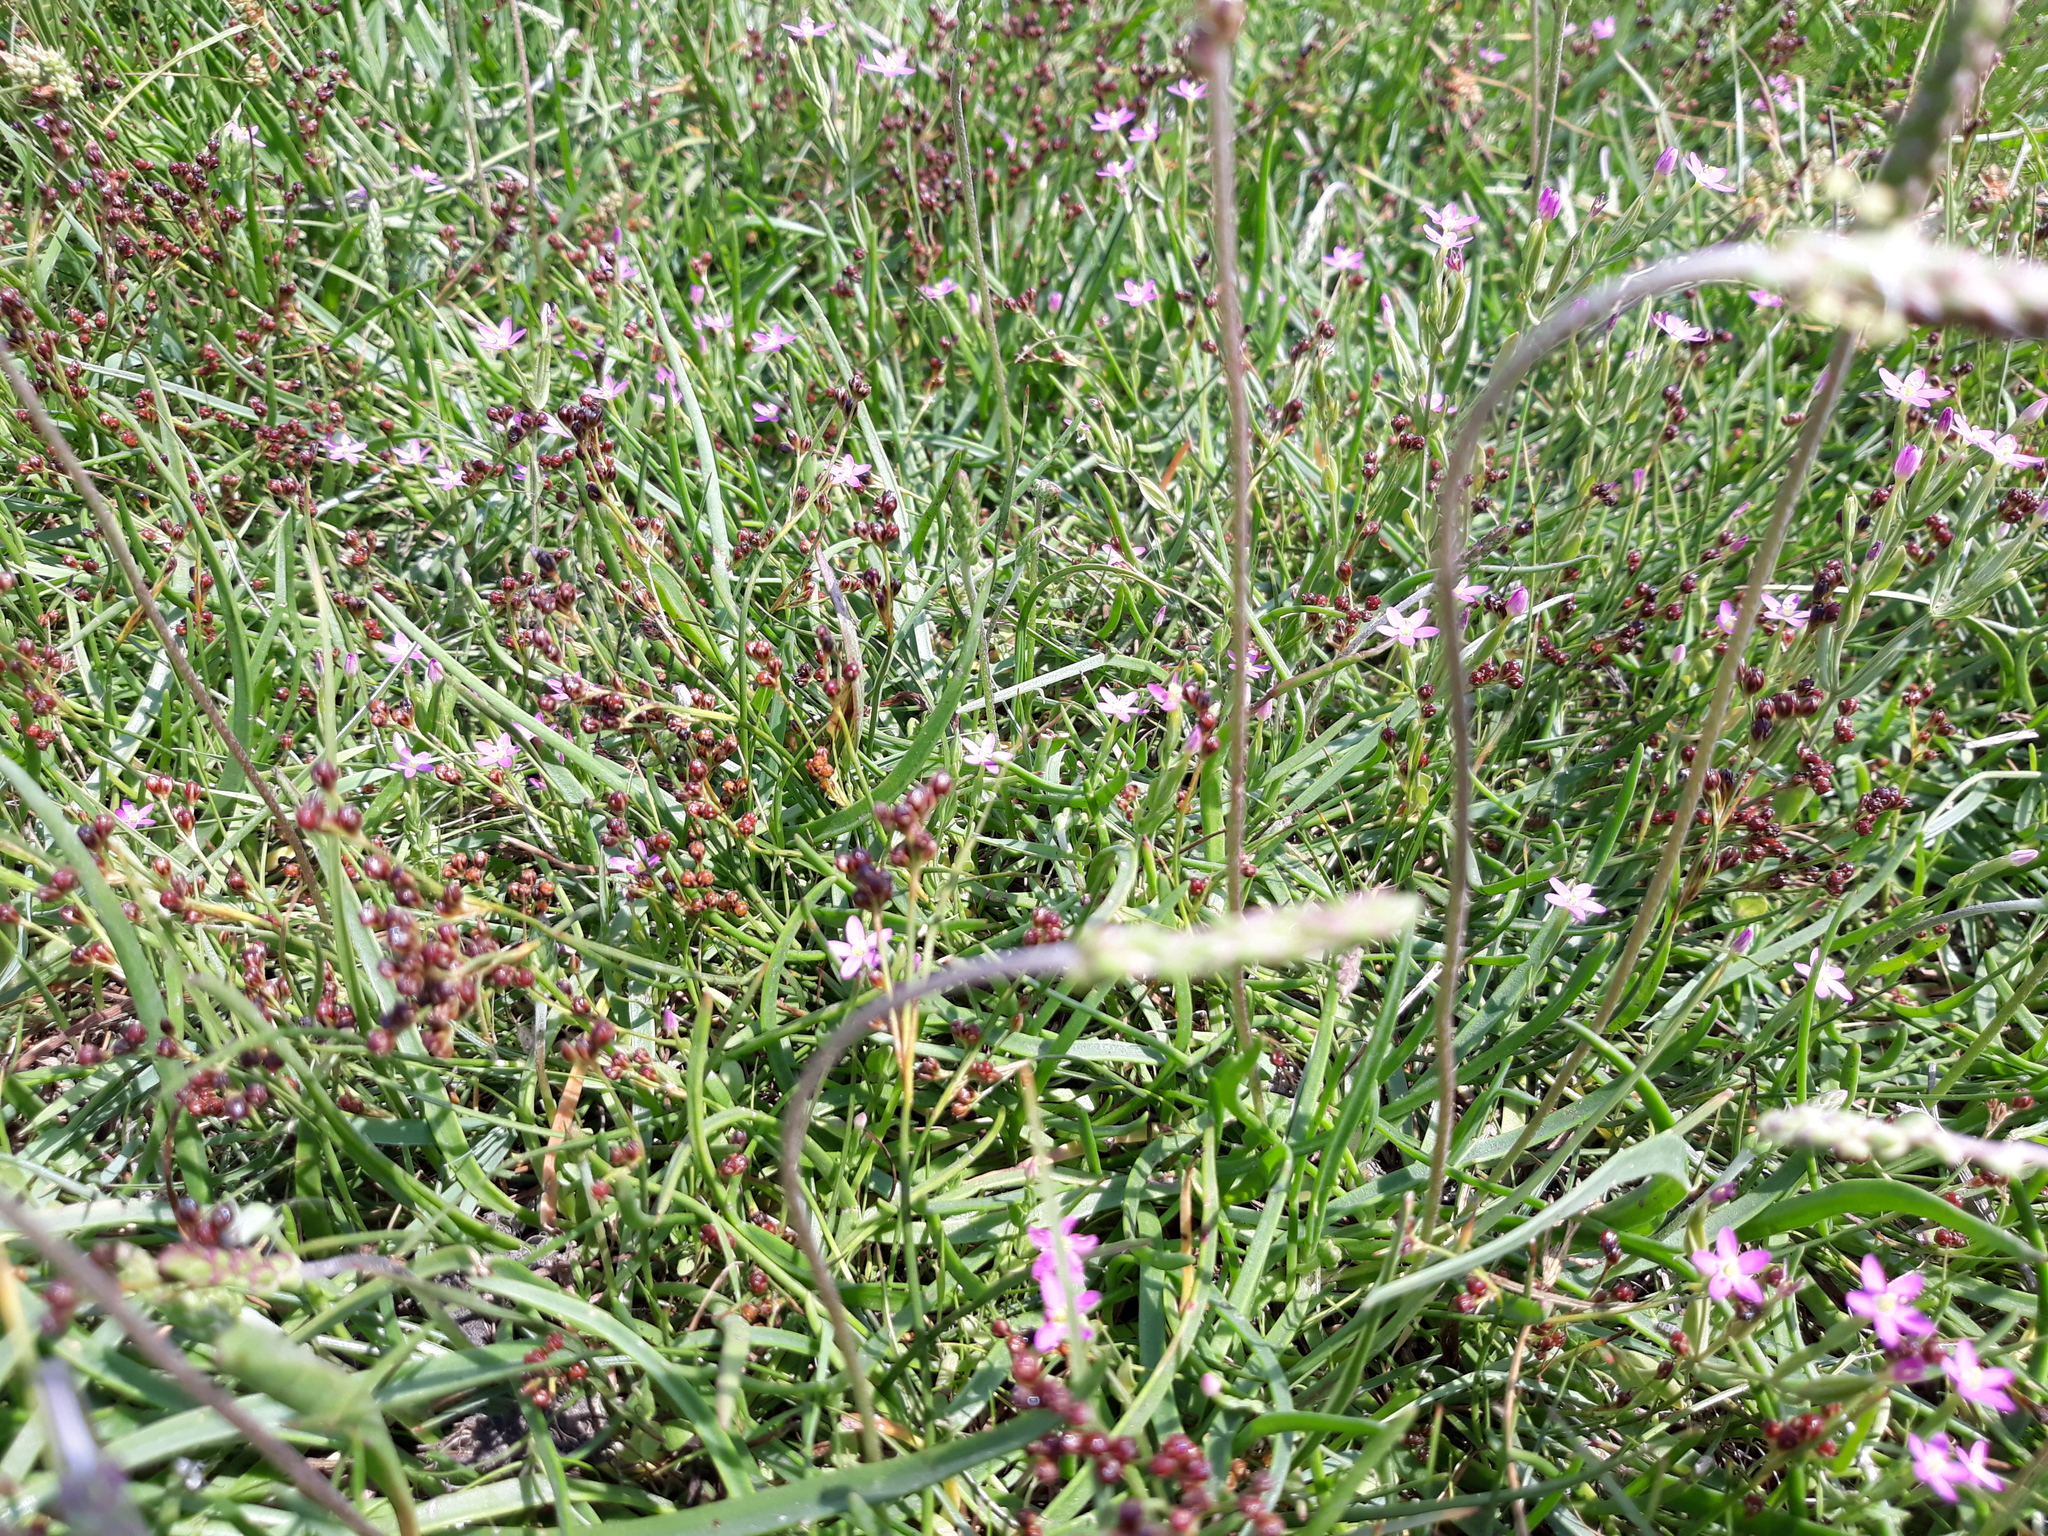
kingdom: Plantae
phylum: Tracheophyta
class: Magnoliopsida
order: Gentianales
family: Gentianaceae
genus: Centaurium
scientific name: Centaurium pulchellum
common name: Lesser centaury
